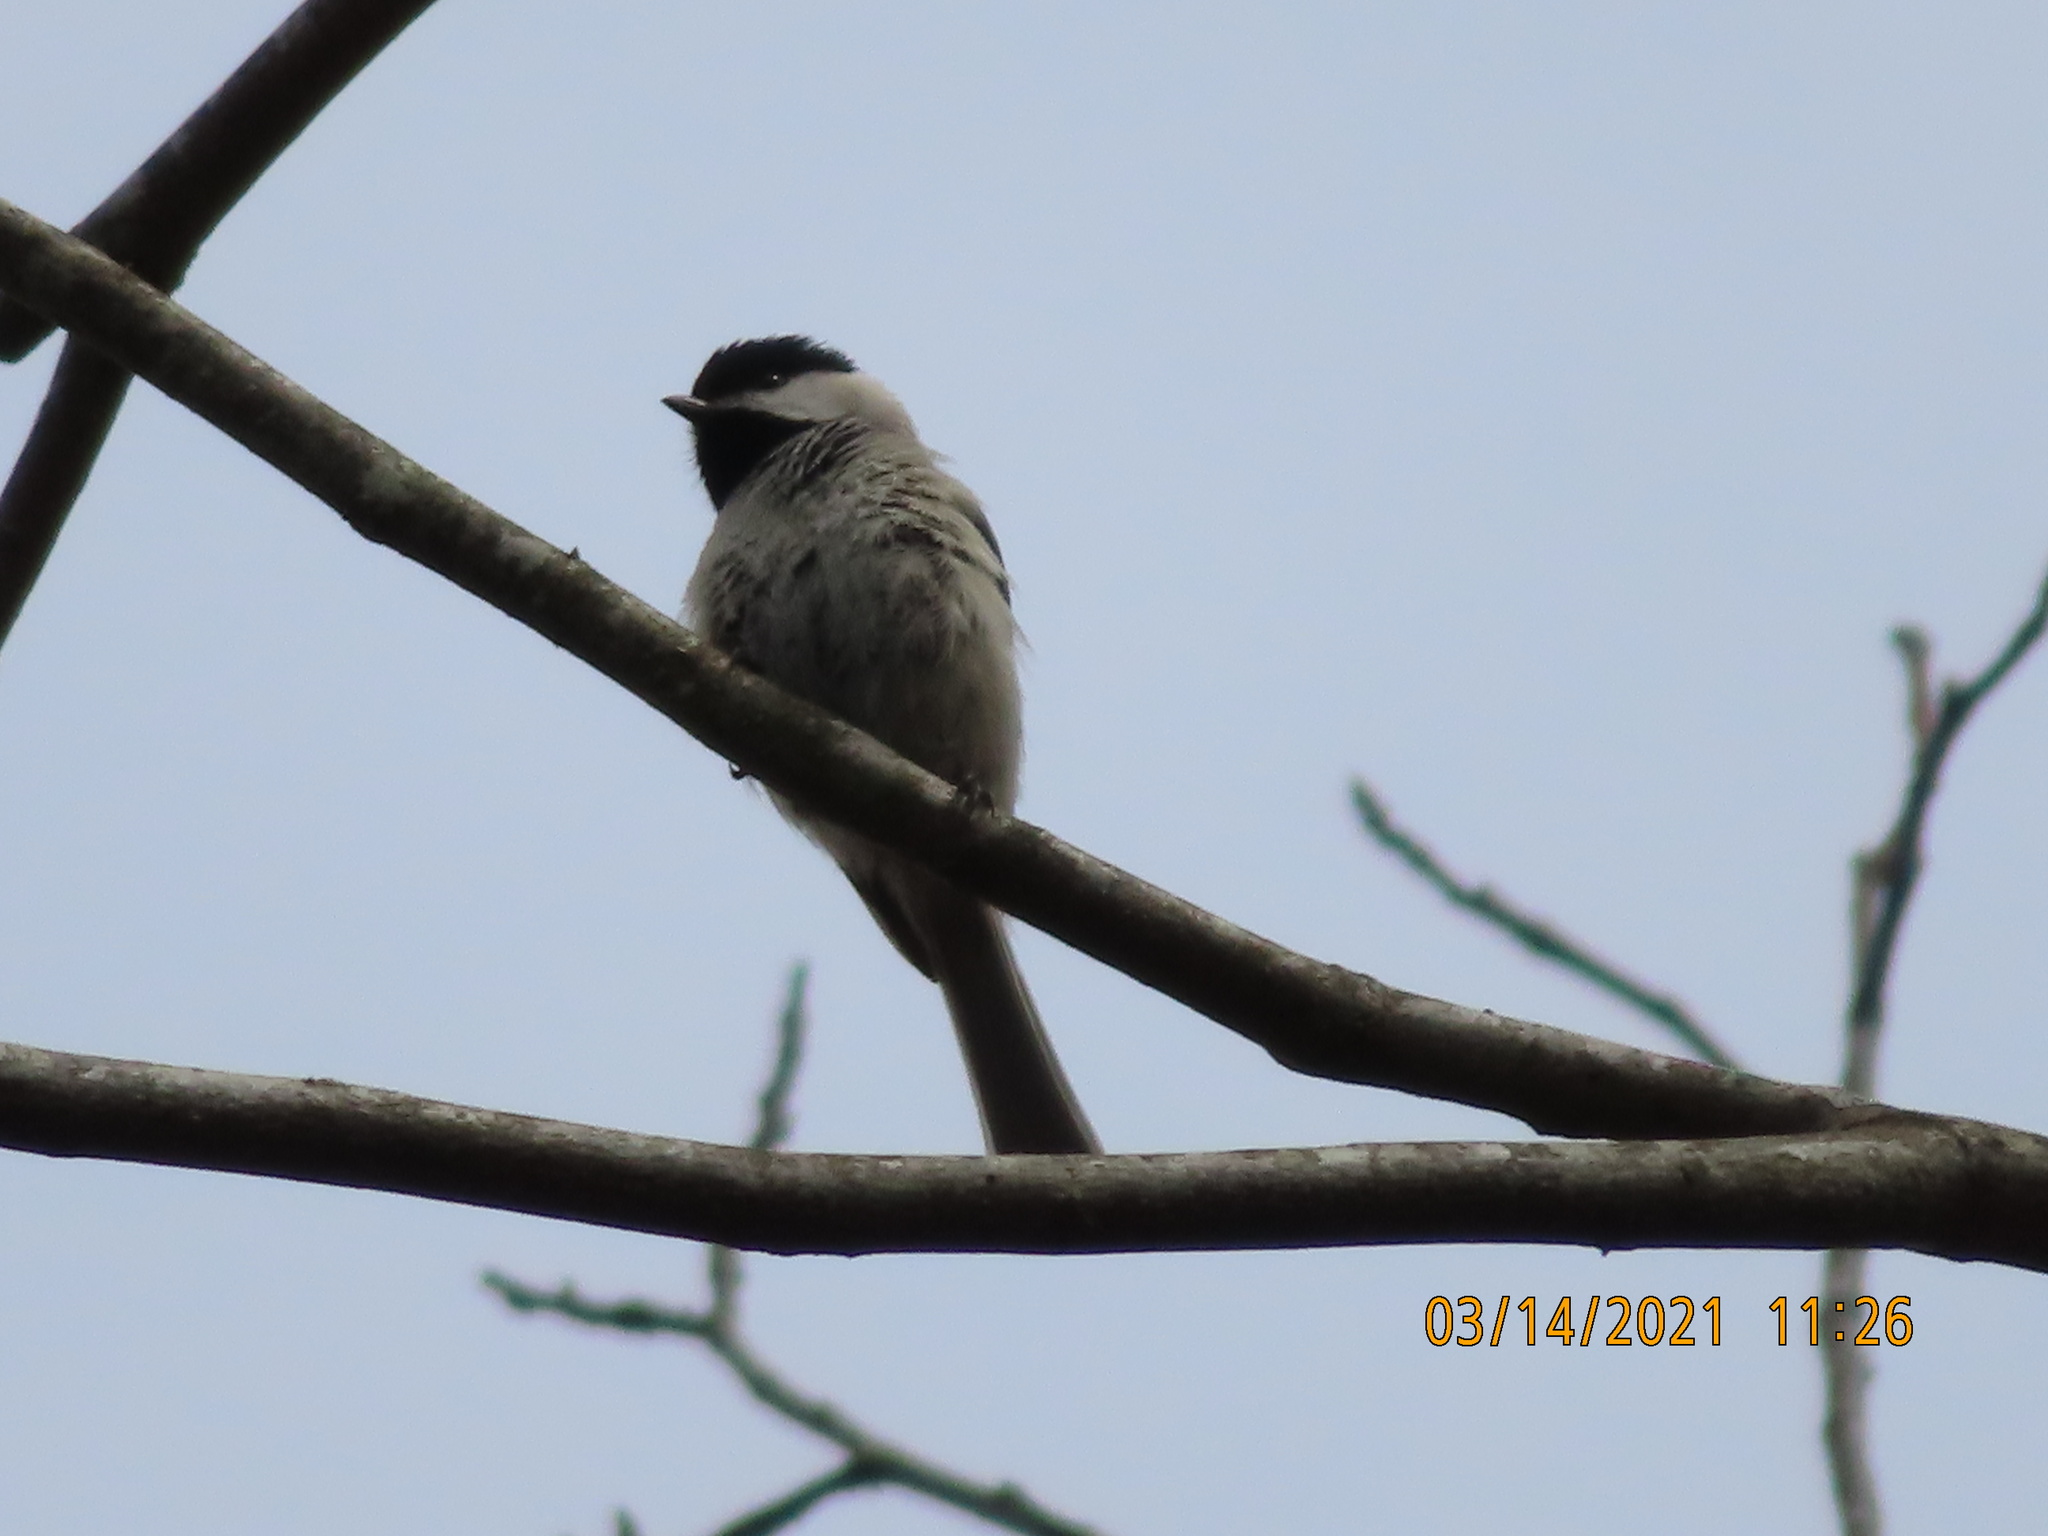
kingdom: Animalia
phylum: Chordata
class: Aves
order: Passeriformes
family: Paridae
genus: Poecile
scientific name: Poecile carolinensis
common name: Carolina chickadee
